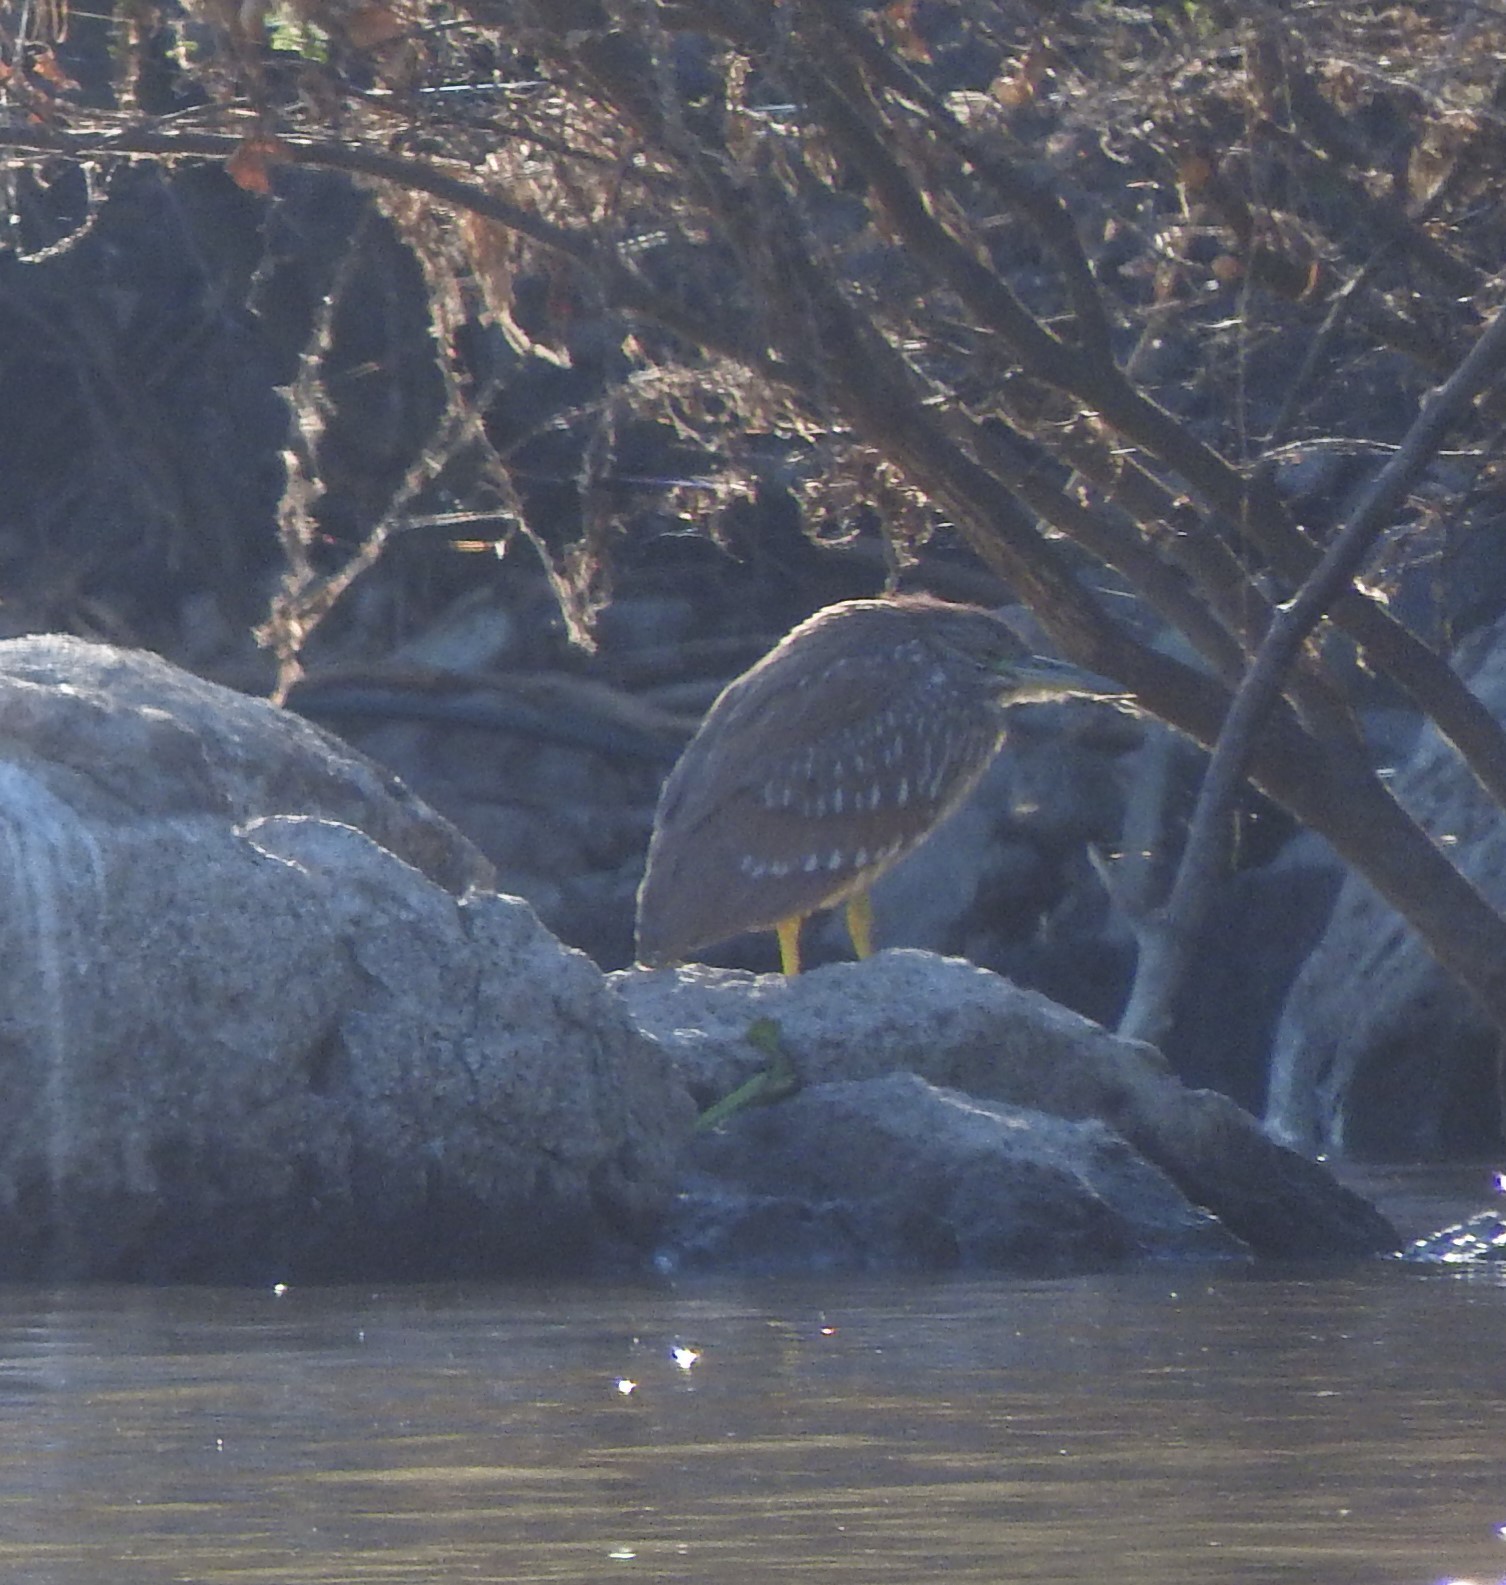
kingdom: Animalia
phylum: Chordata
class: Aves
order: Pelecaniformes
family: Ardeidae
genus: Nycticorax
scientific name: Nycticorax nycticorax
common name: Black-crowned night heron
